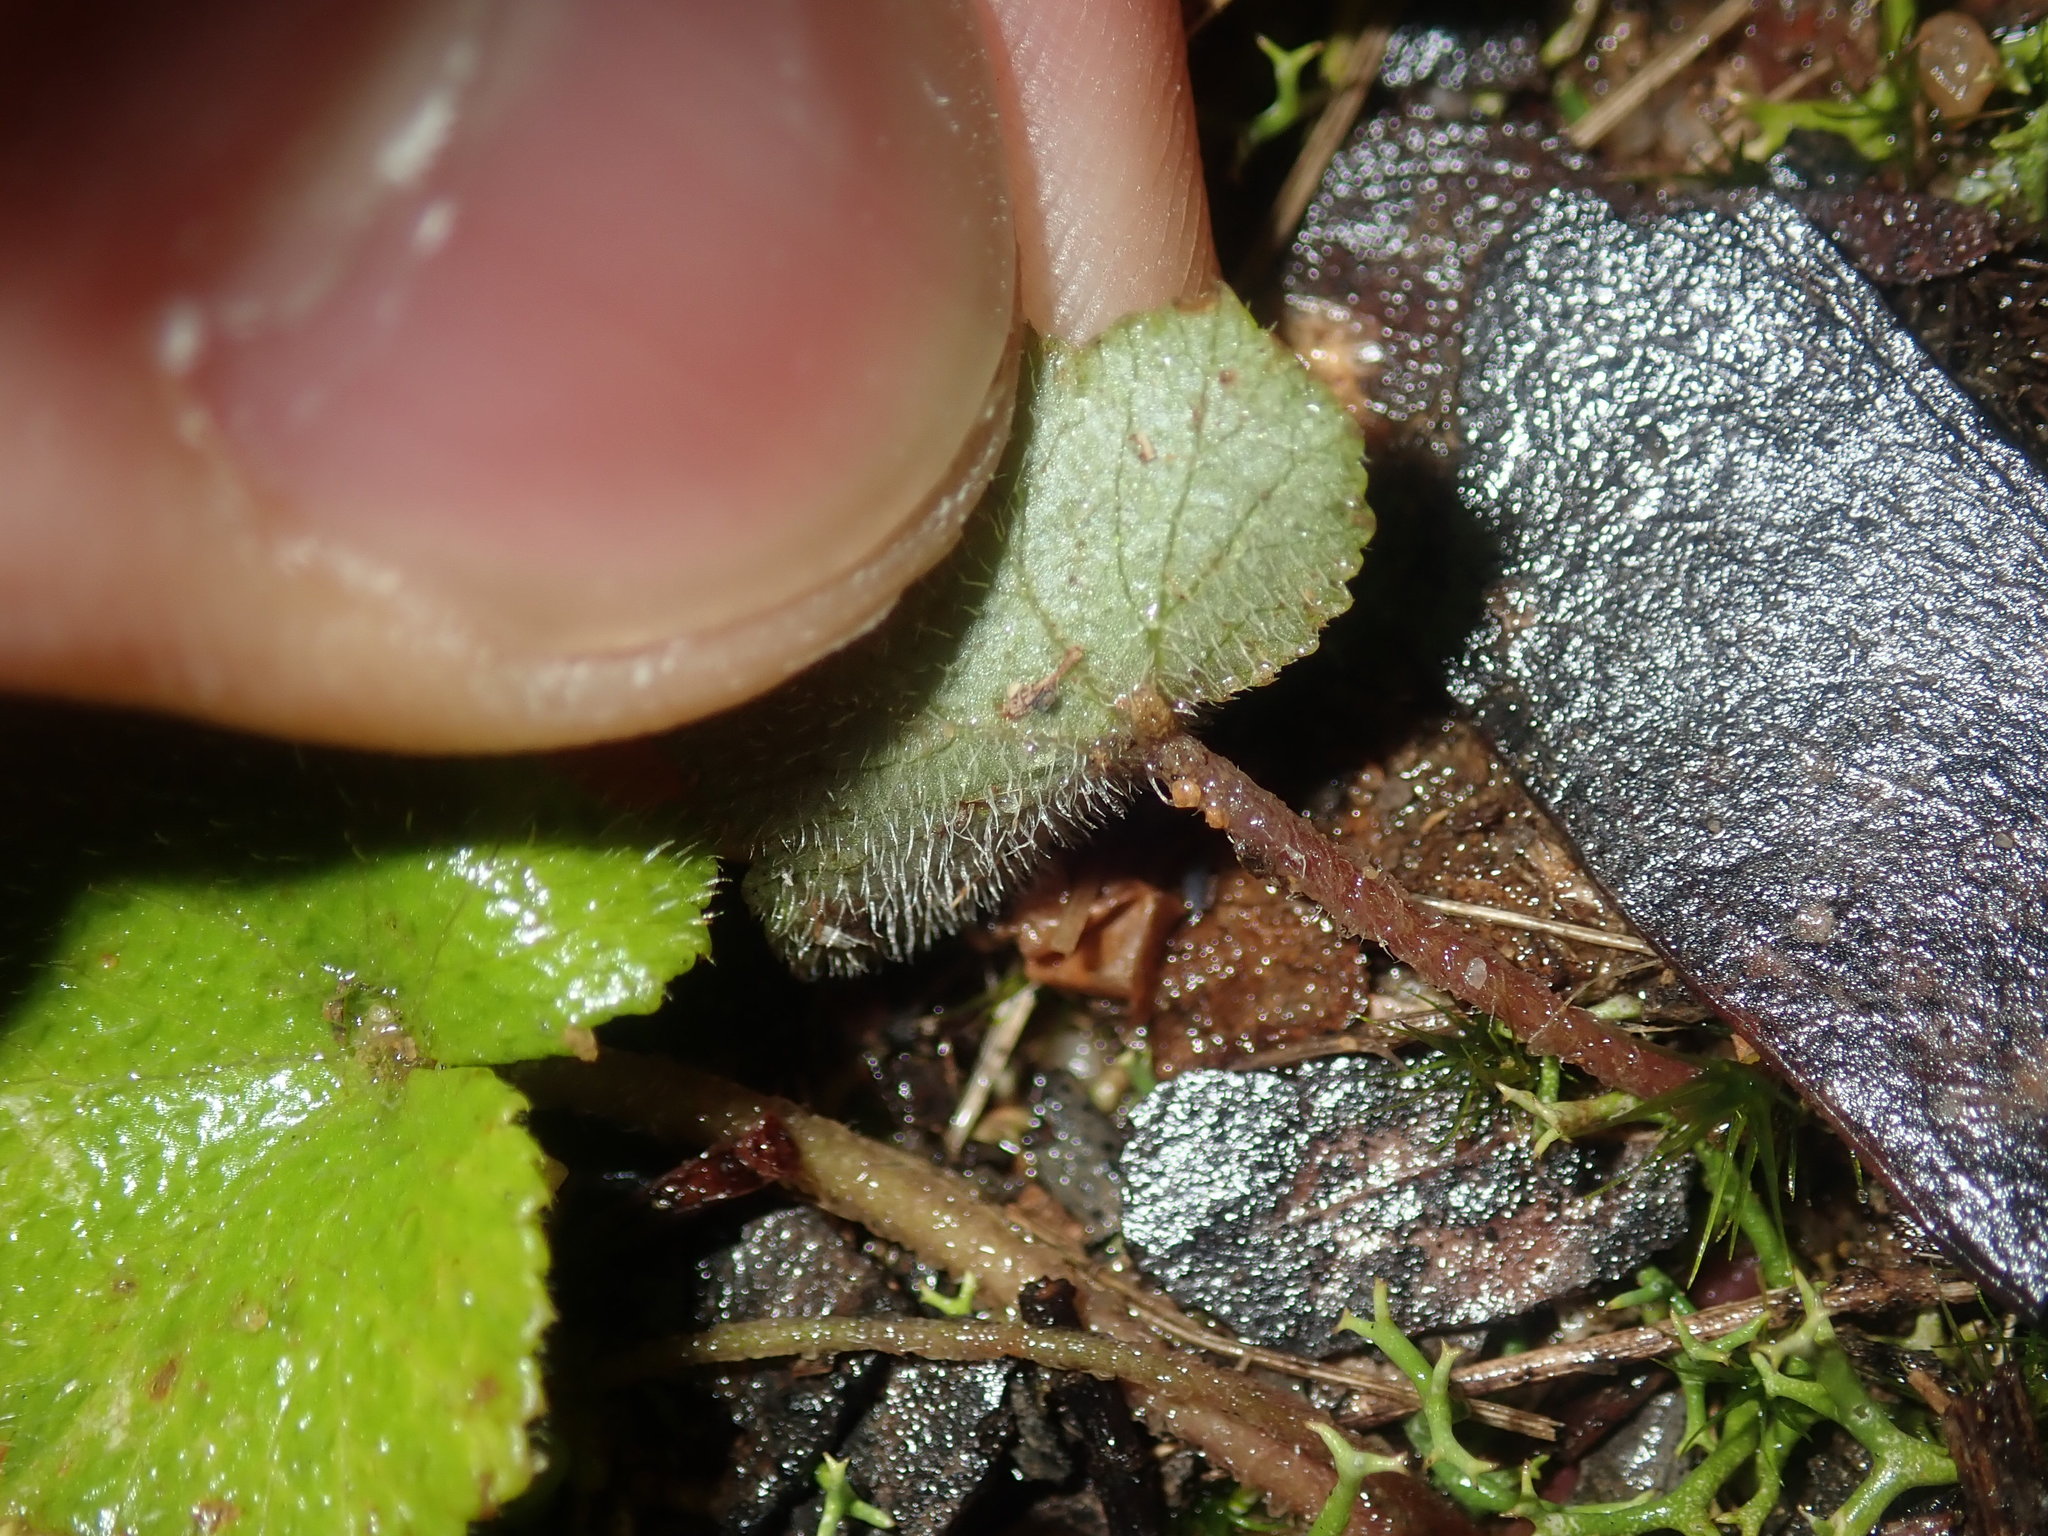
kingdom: Plantae
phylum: Tracheophyta
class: Magnoliopsida
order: Apiales
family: Araliaceae
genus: Hydrocotyle
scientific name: Hydrocotyle hirta
